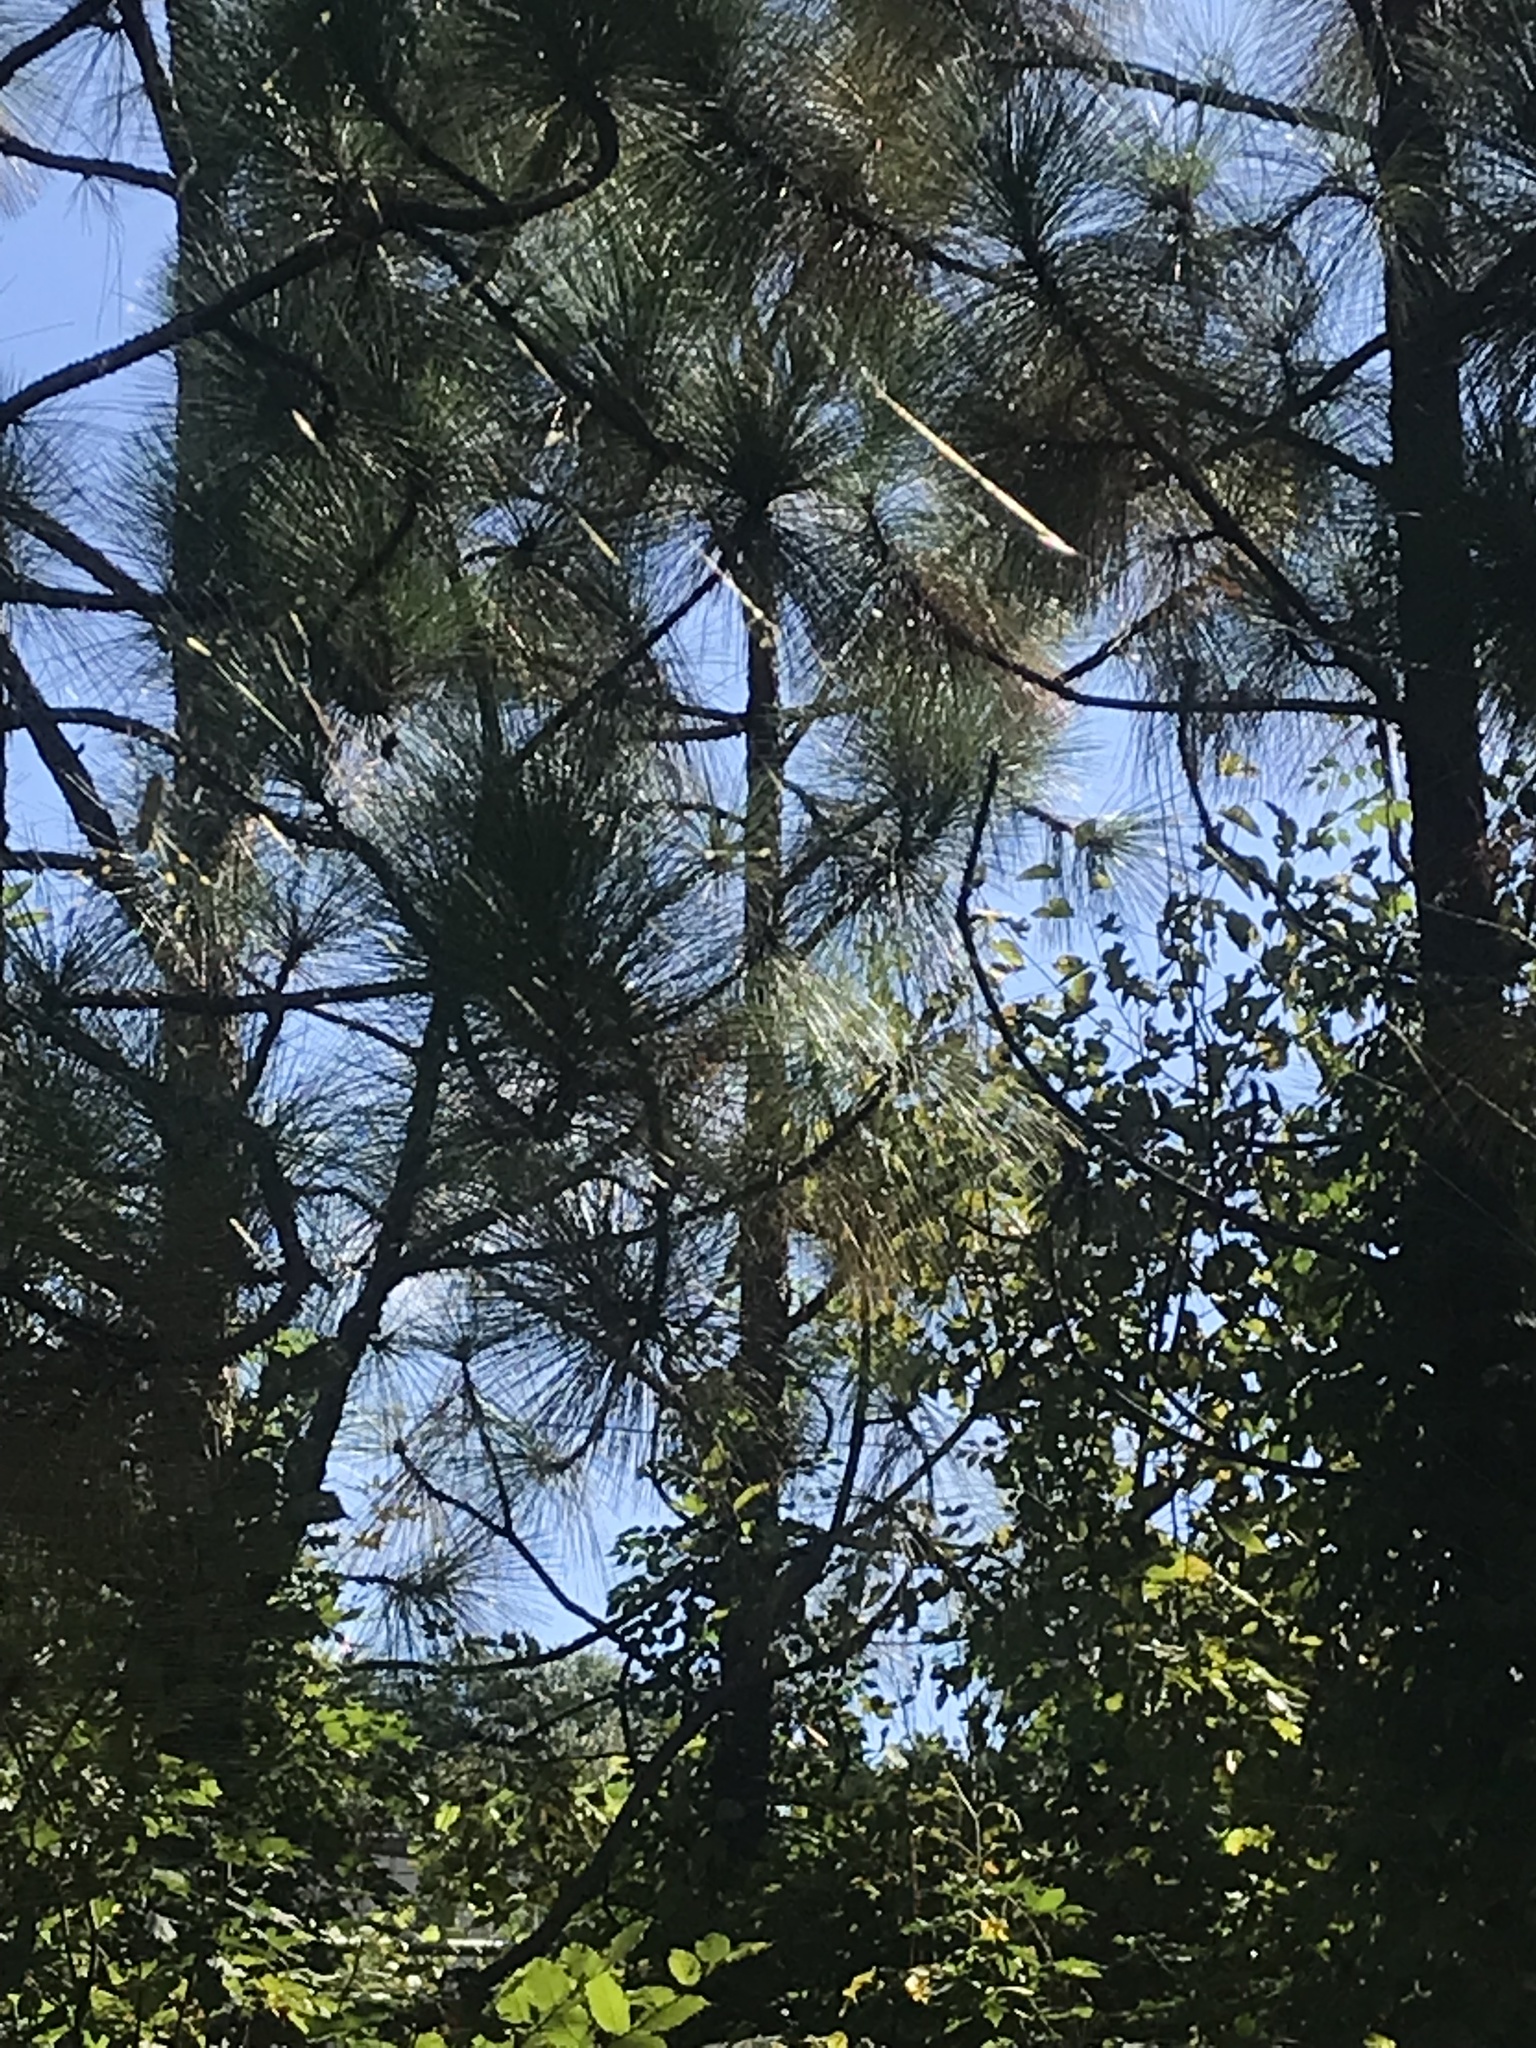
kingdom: Animalia
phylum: Arthropoda
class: Arachnida
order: Araneae
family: Araneidae
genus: Trichonephila
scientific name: Trichonephila clavata
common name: Jorō spider
